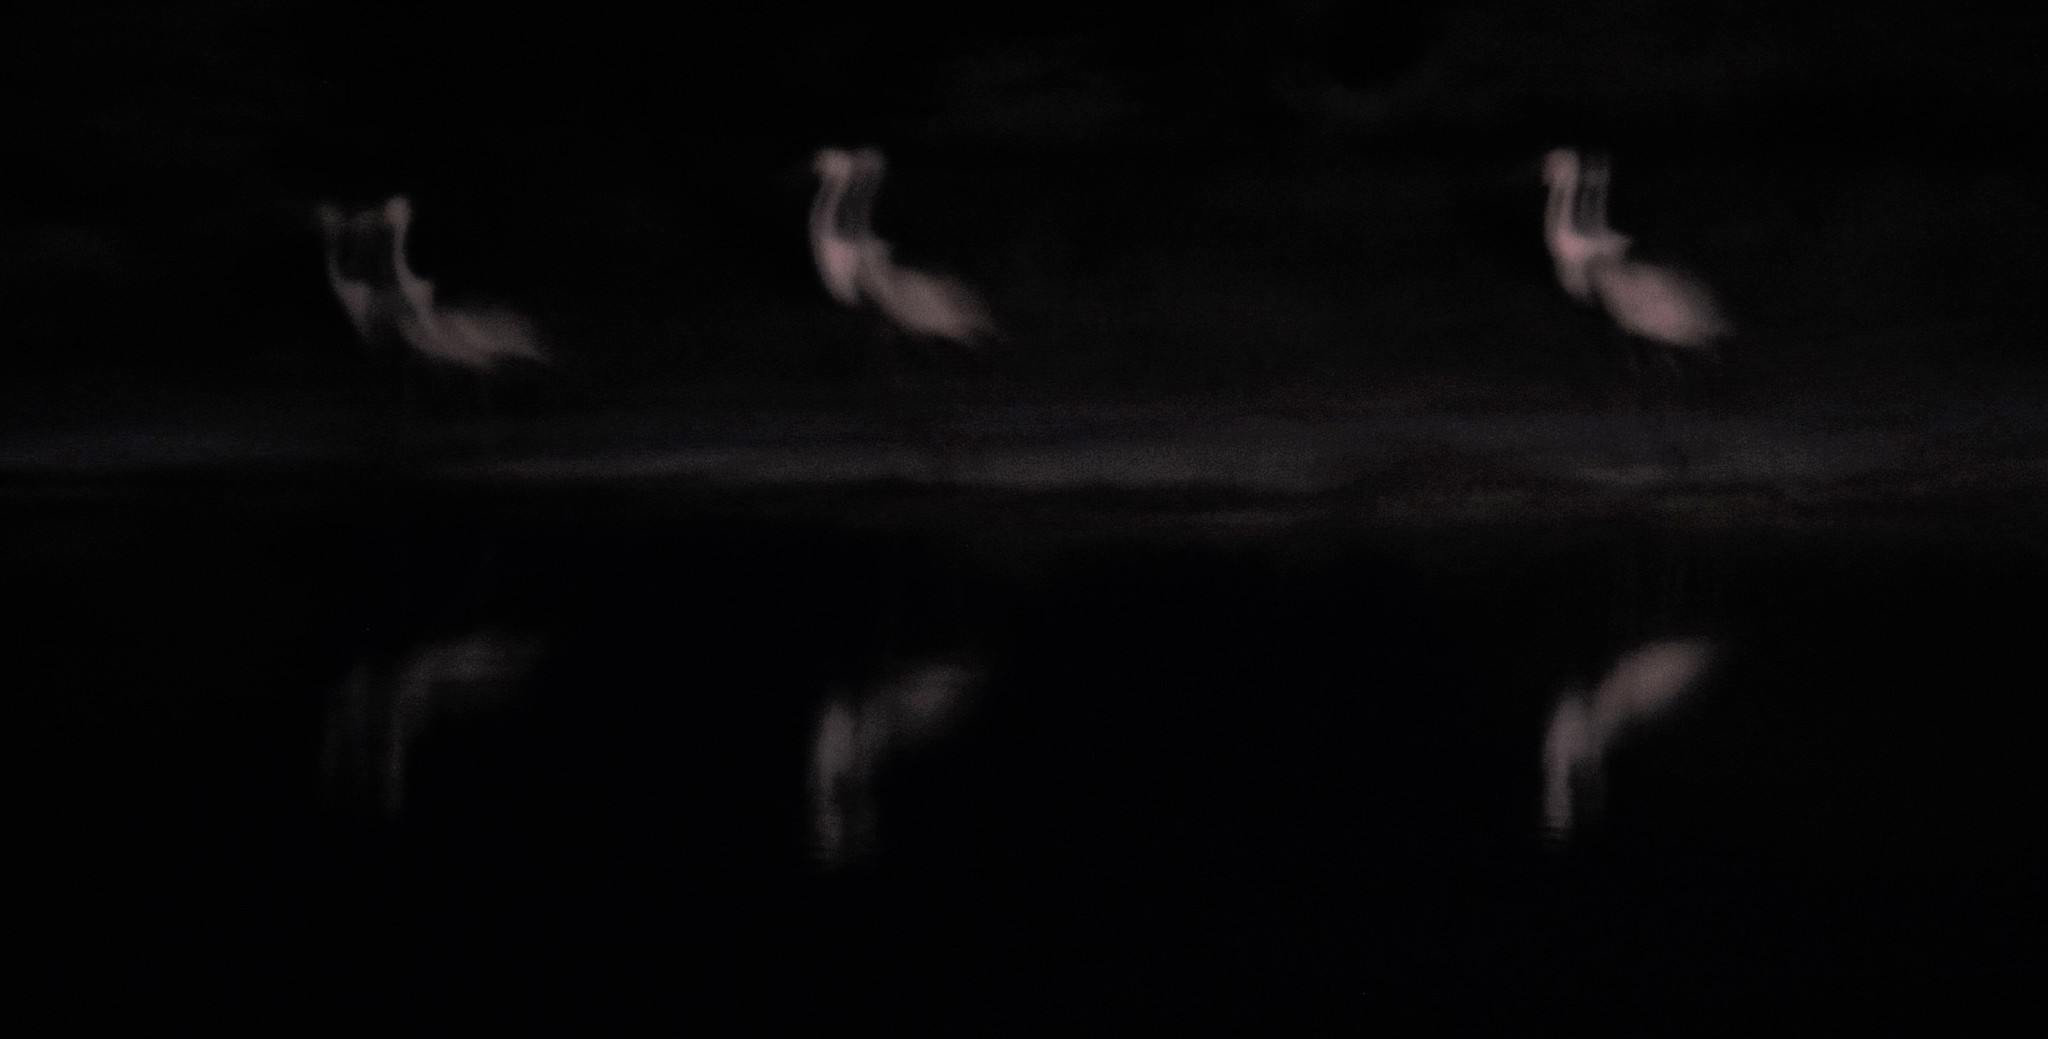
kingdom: Animalia
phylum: Chordata
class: Aves
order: Gruiformes
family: Gruidae
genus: Bugeranus
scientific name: Bugeranus carunculatus
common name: Wattled crane
